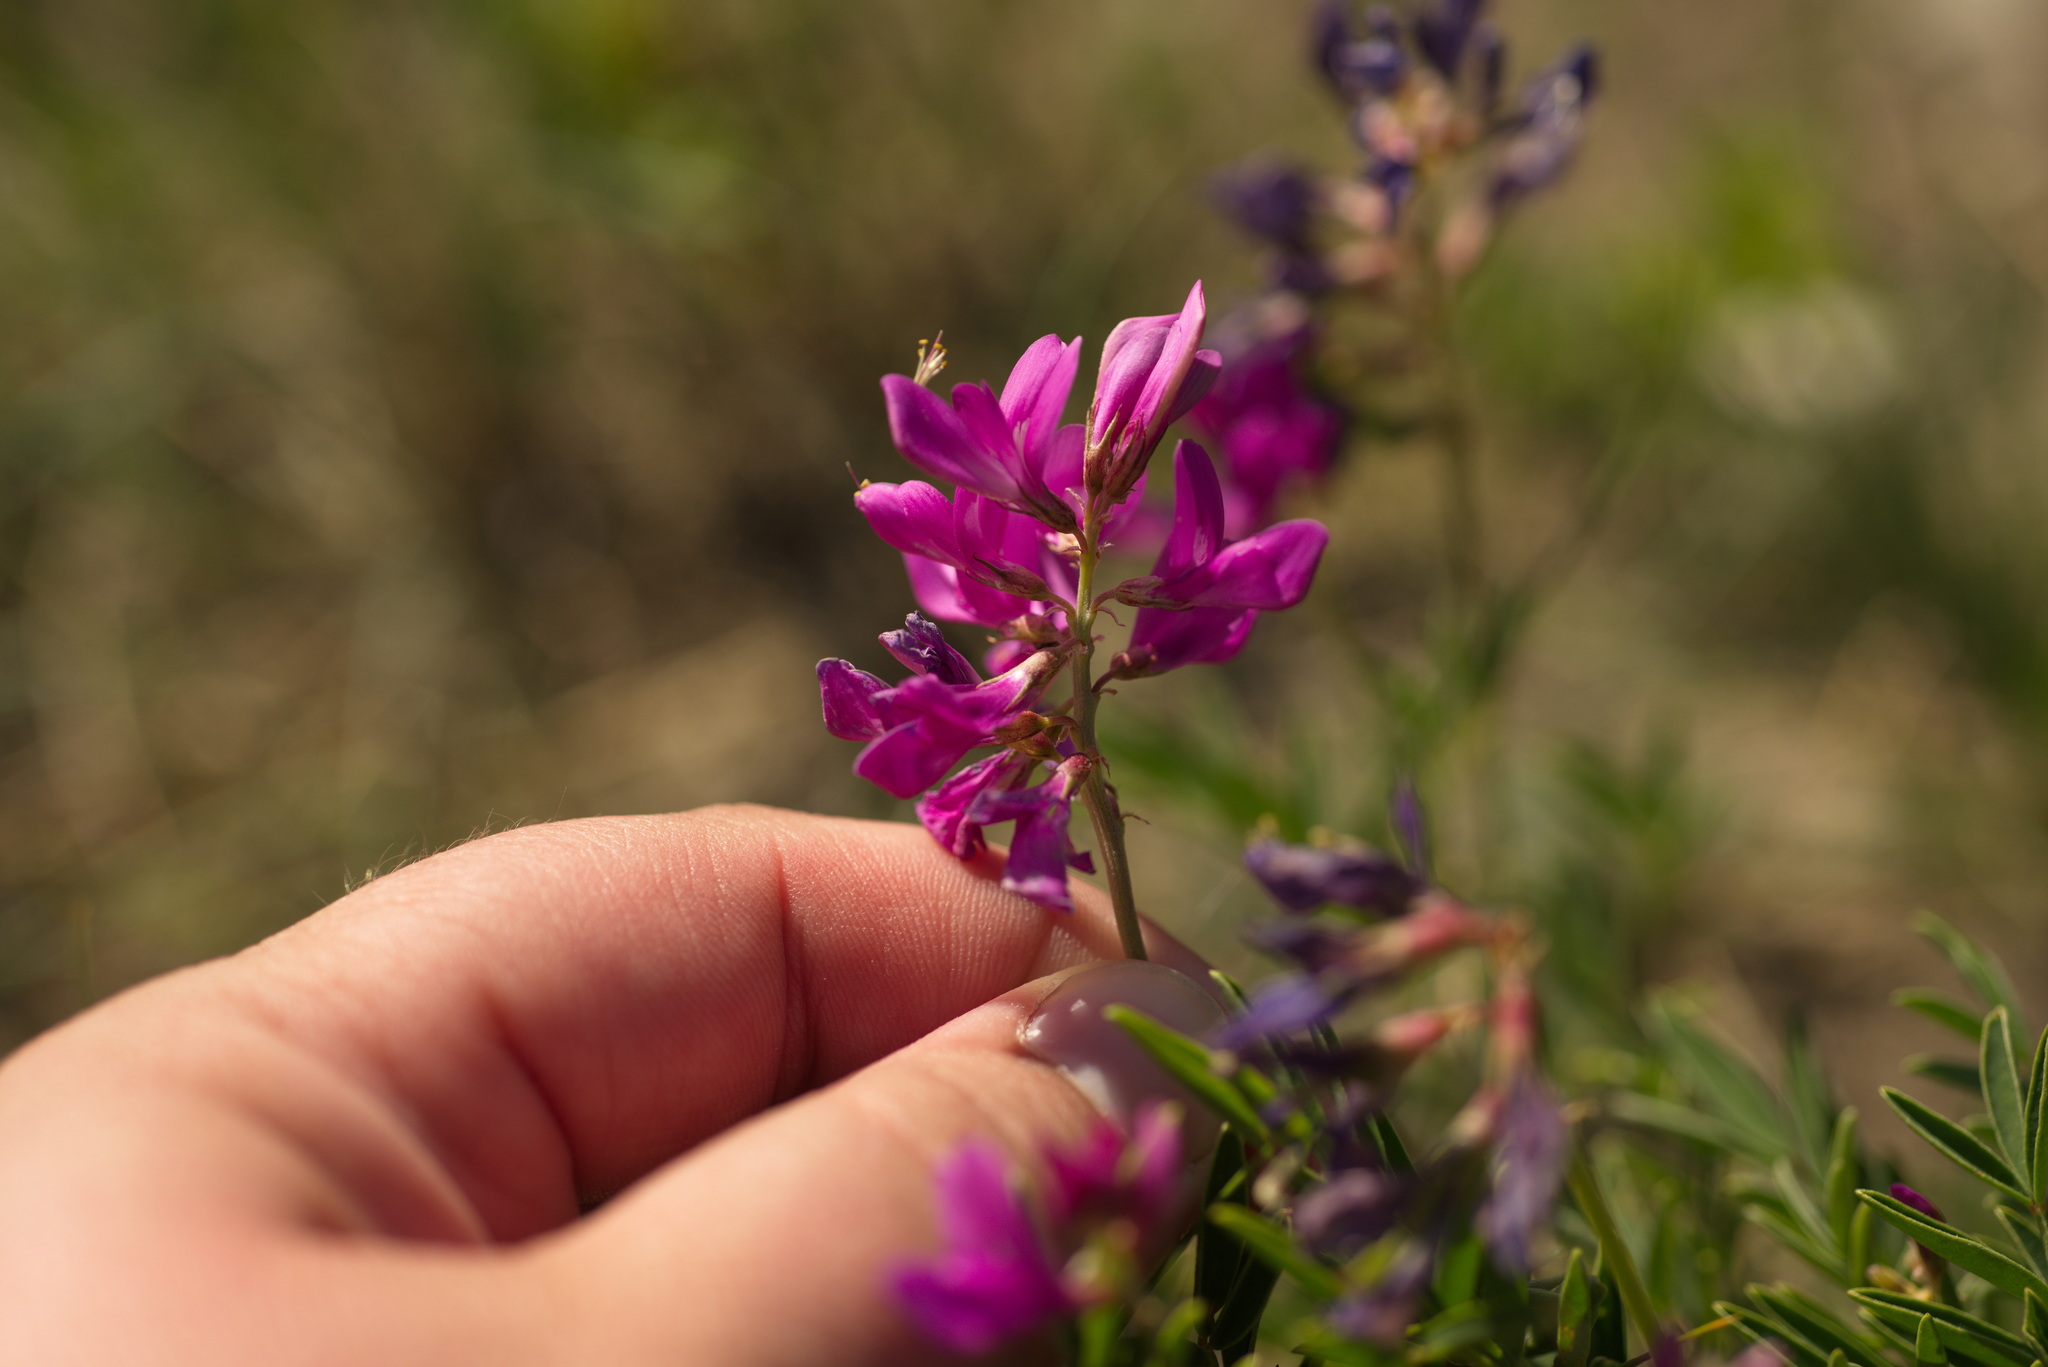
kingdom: Plantae
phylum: Tracheophyta
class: Magnoliopsida
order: Fabales
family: Fabaceae
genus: Hedysarum
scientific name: Hedysarum boreale
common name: Northern sweet-vetch
